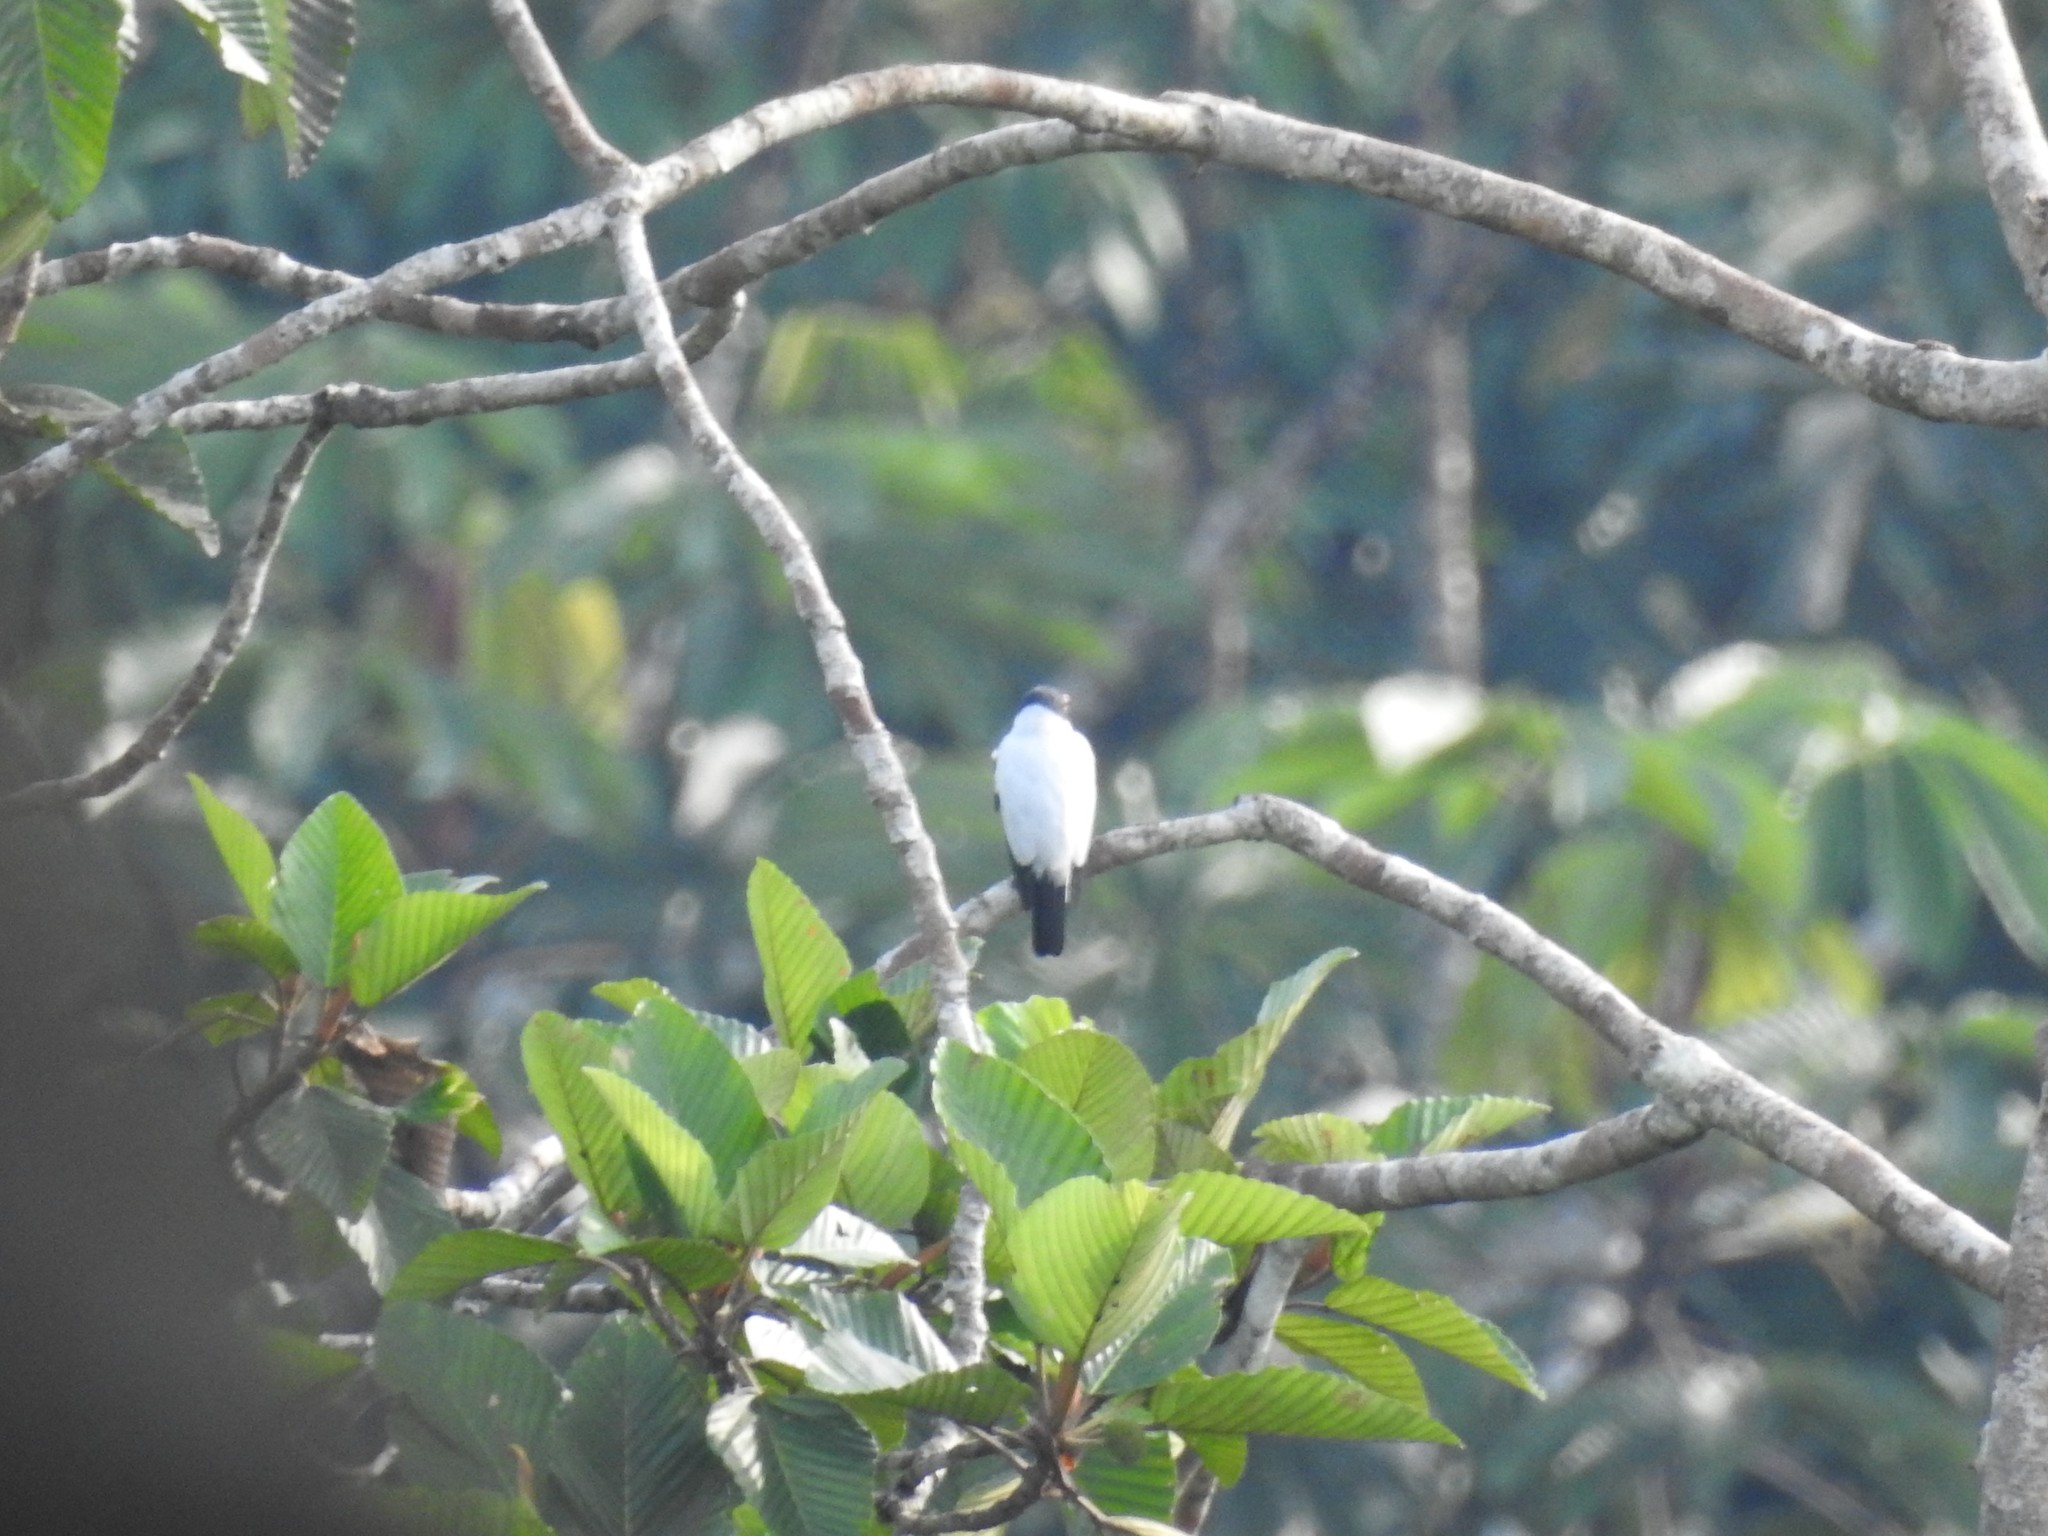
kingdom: Animalia
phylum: Chordata
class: Aves
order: Passeriformes
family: Cotingidae
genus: Tityra
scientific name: Tityra cayana
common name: Black-tailed tityra
